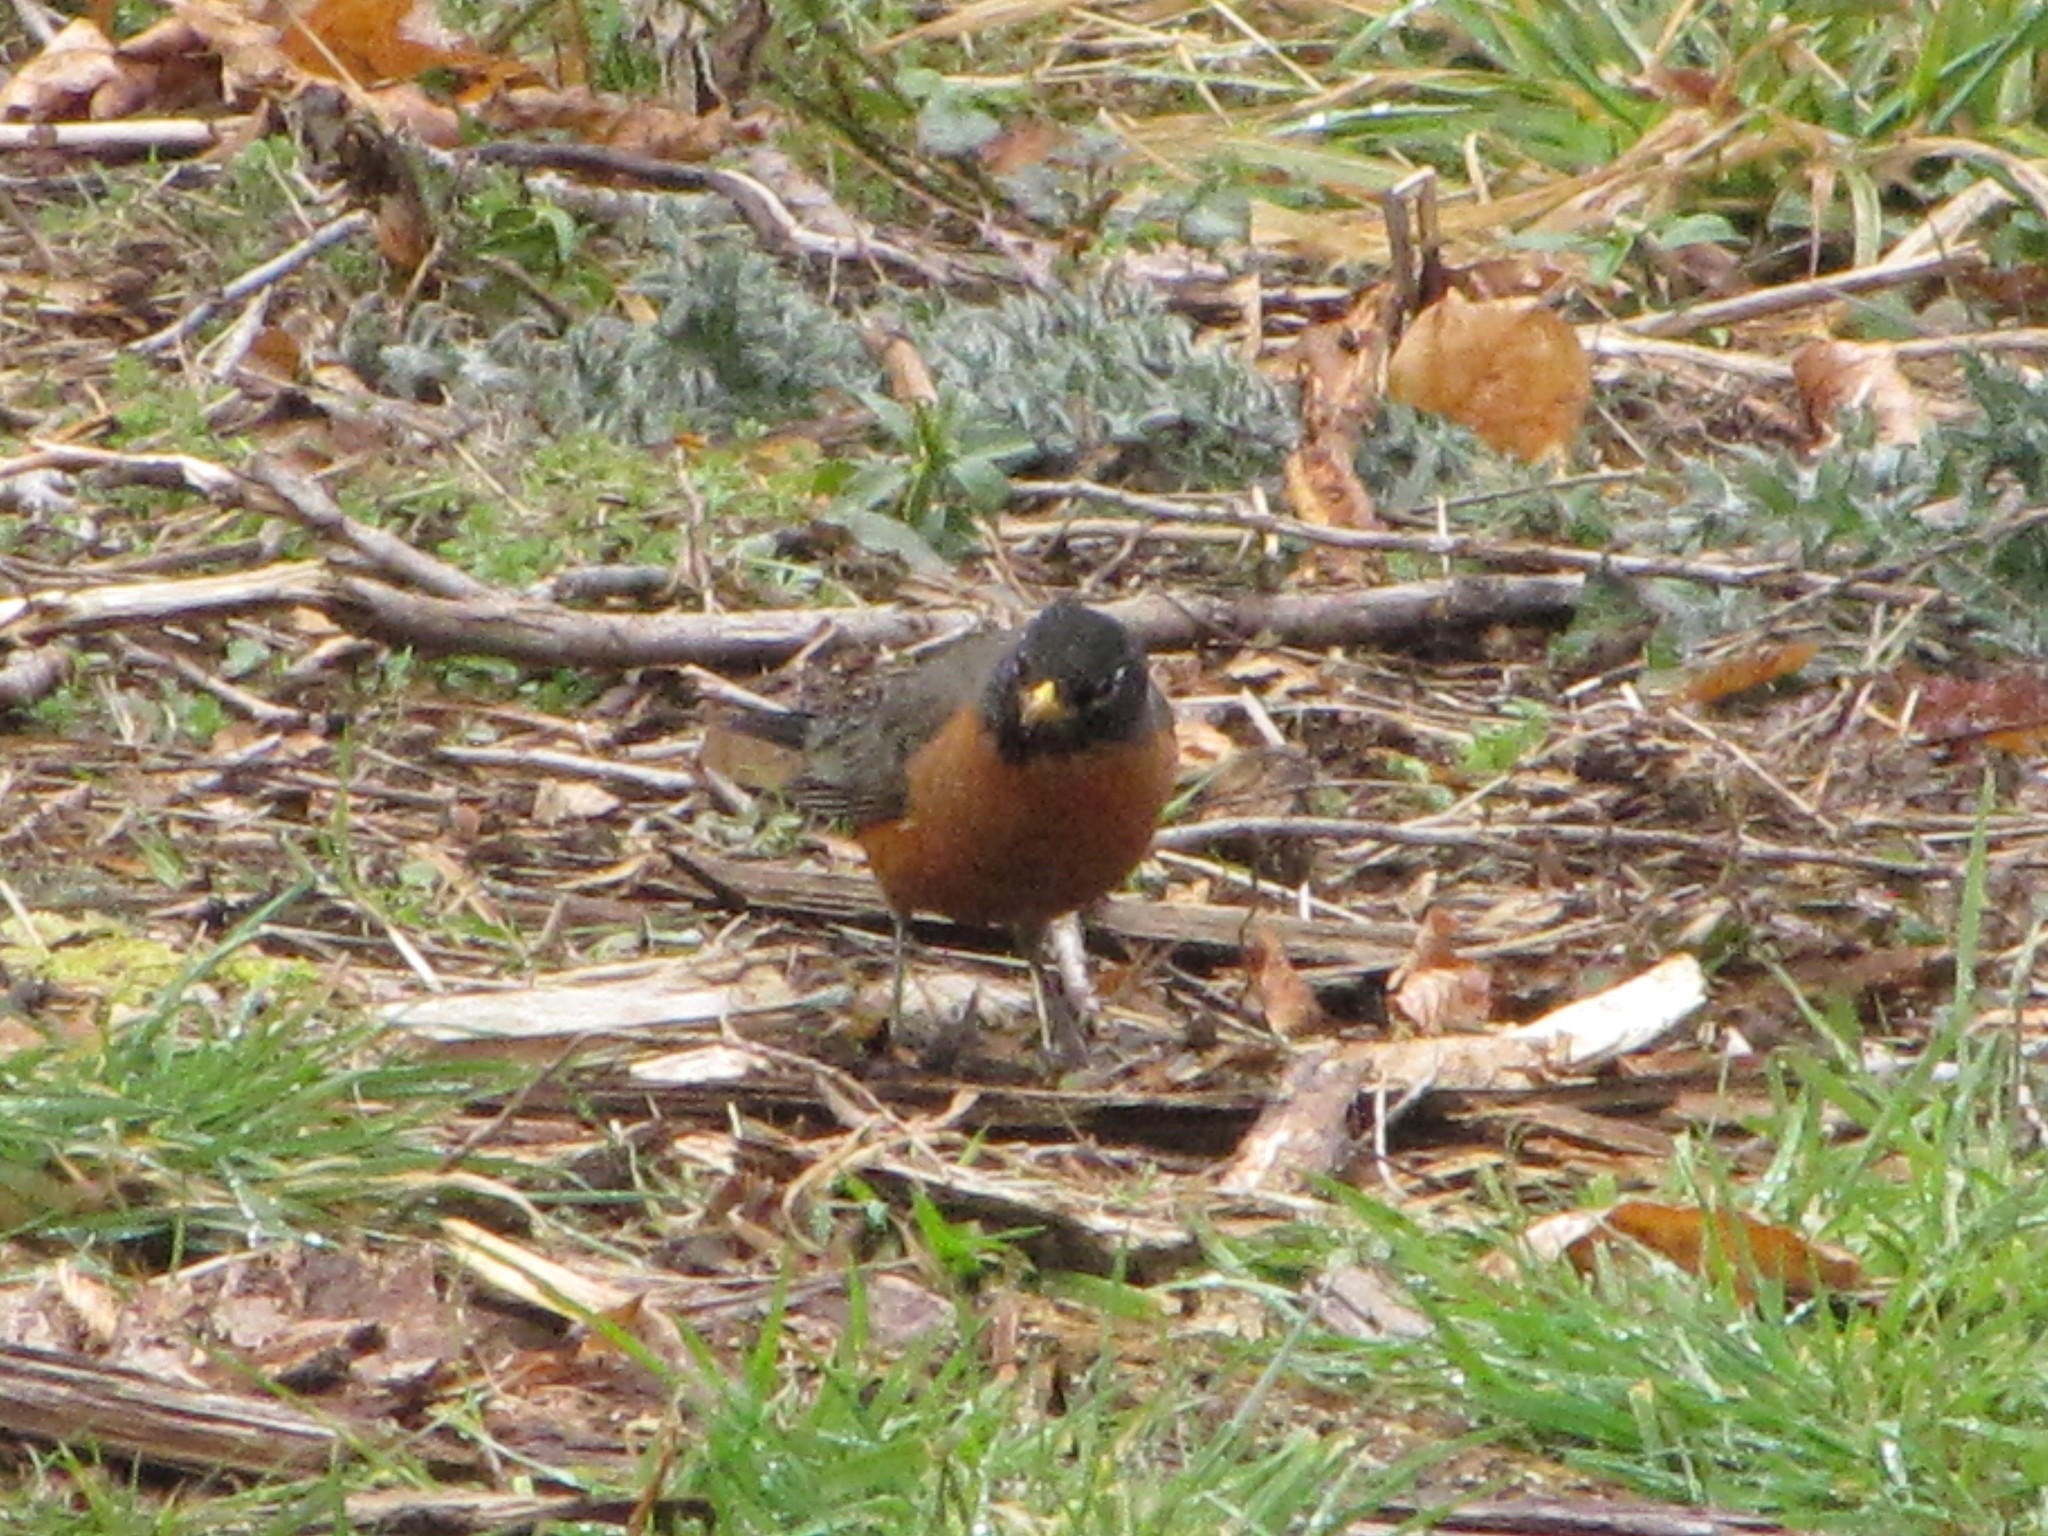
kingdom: Animalia
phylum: Chordata
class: Aves
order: Passeriformes
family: Turdidae
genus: Turdus
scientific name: Turdus migratorius
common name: American robin
